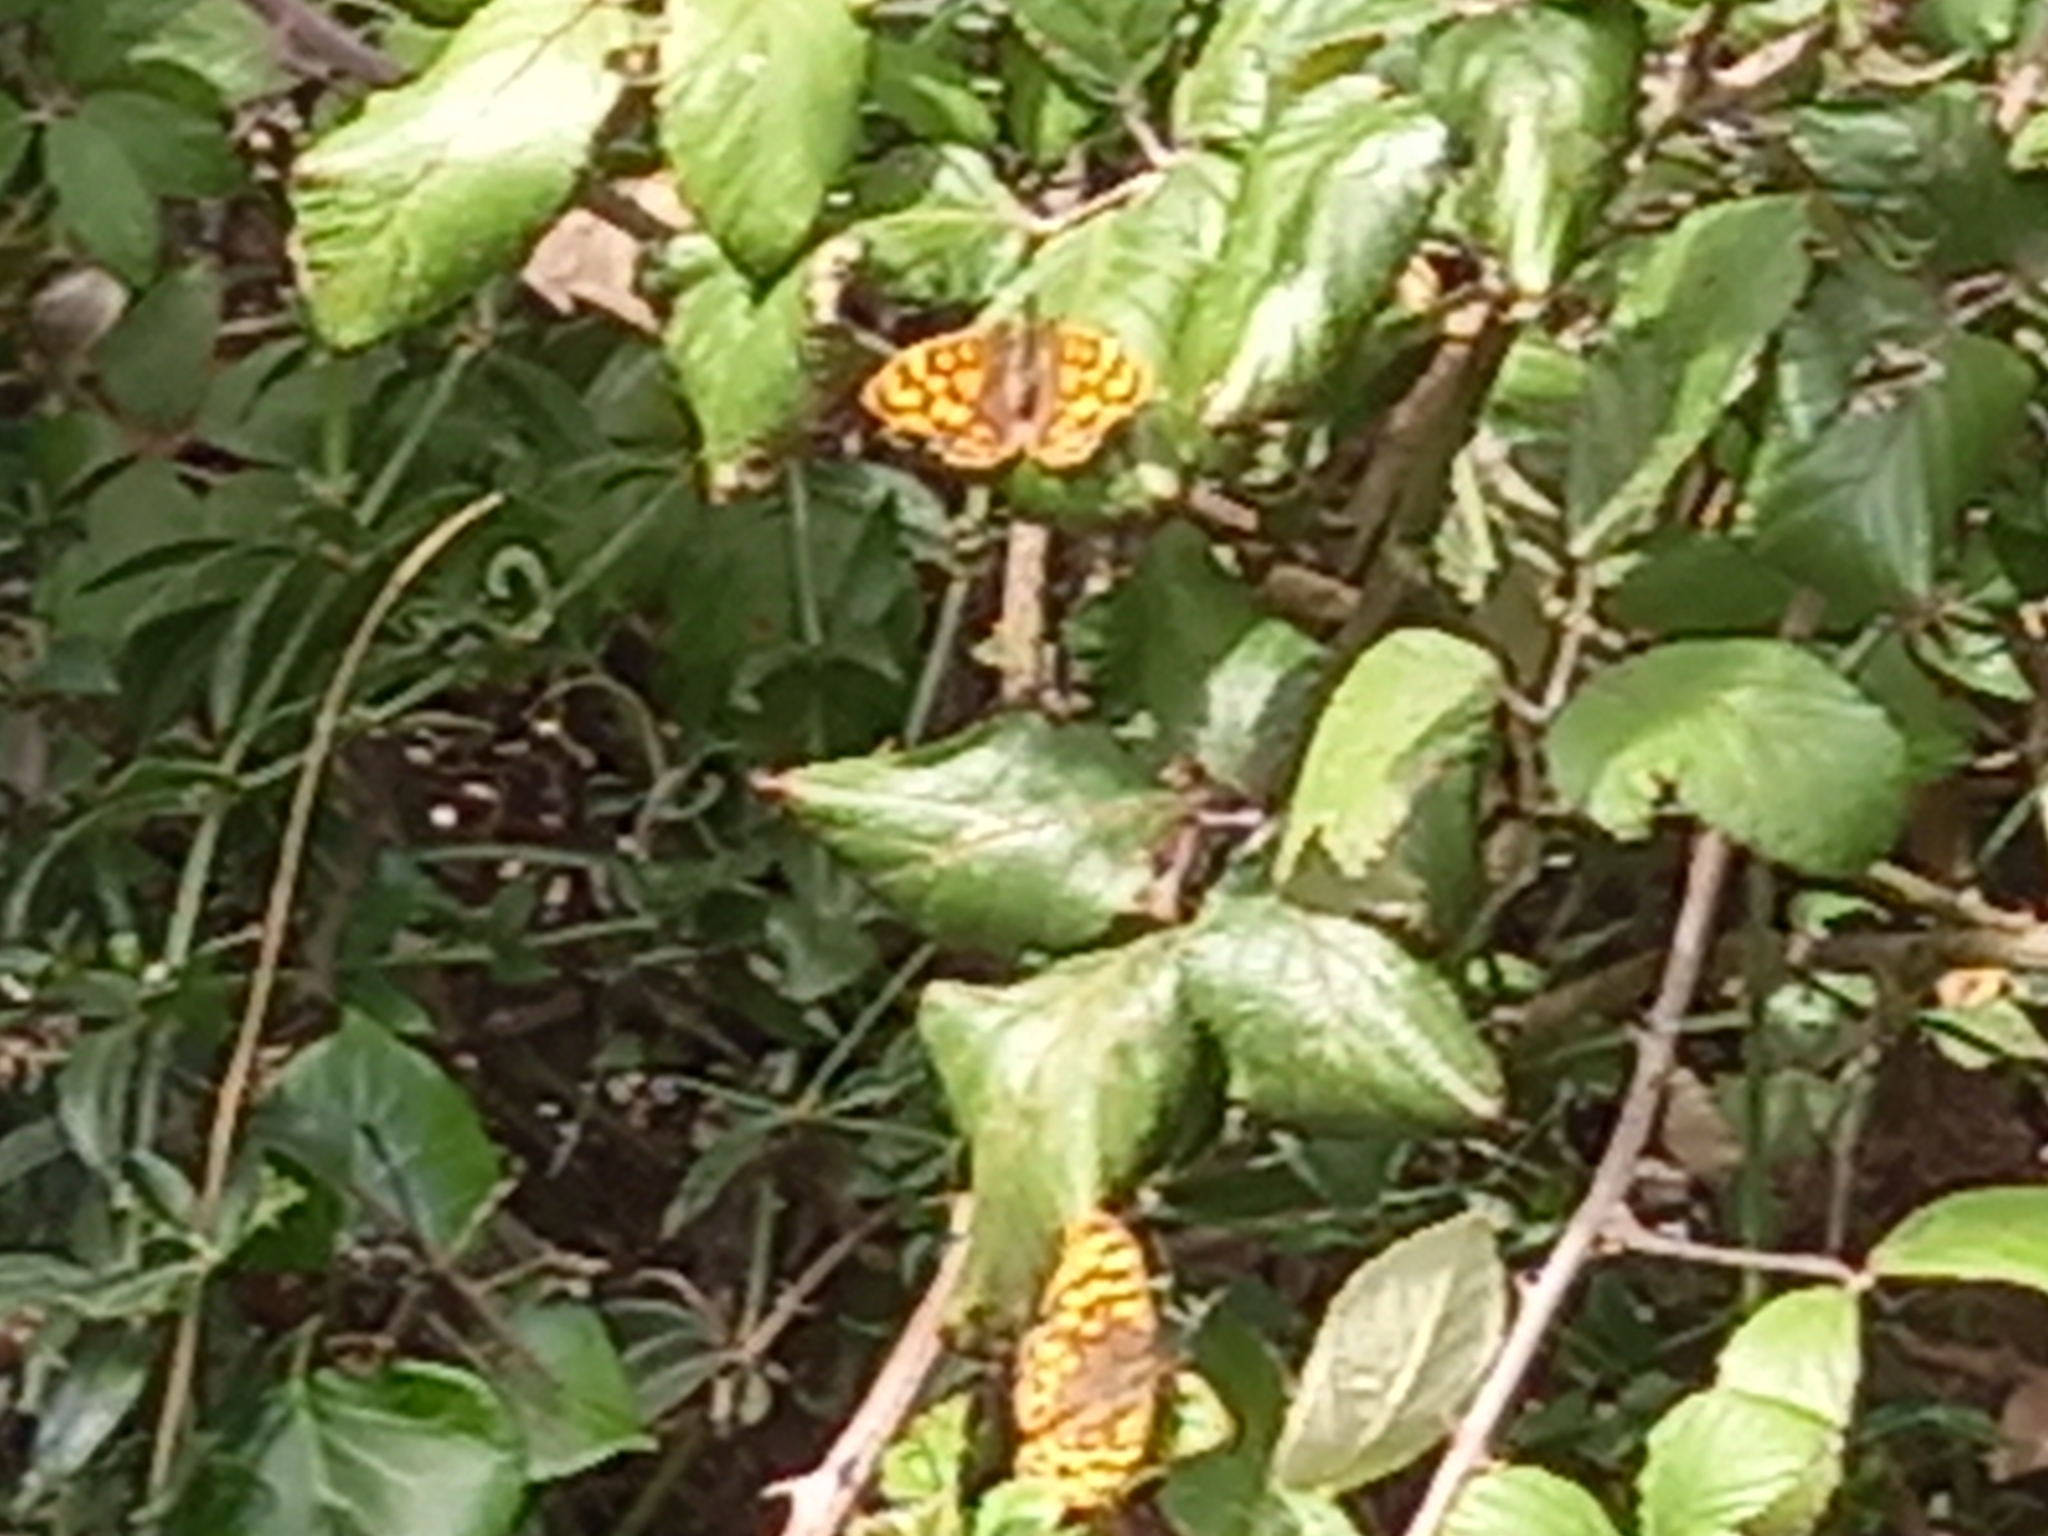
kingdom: Animalia
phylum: Arthropoda
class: Insecta
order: Lepidoptera
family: Nymphalidae
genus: Pararge
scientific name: Pararge aegeria
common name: Speckled wood
